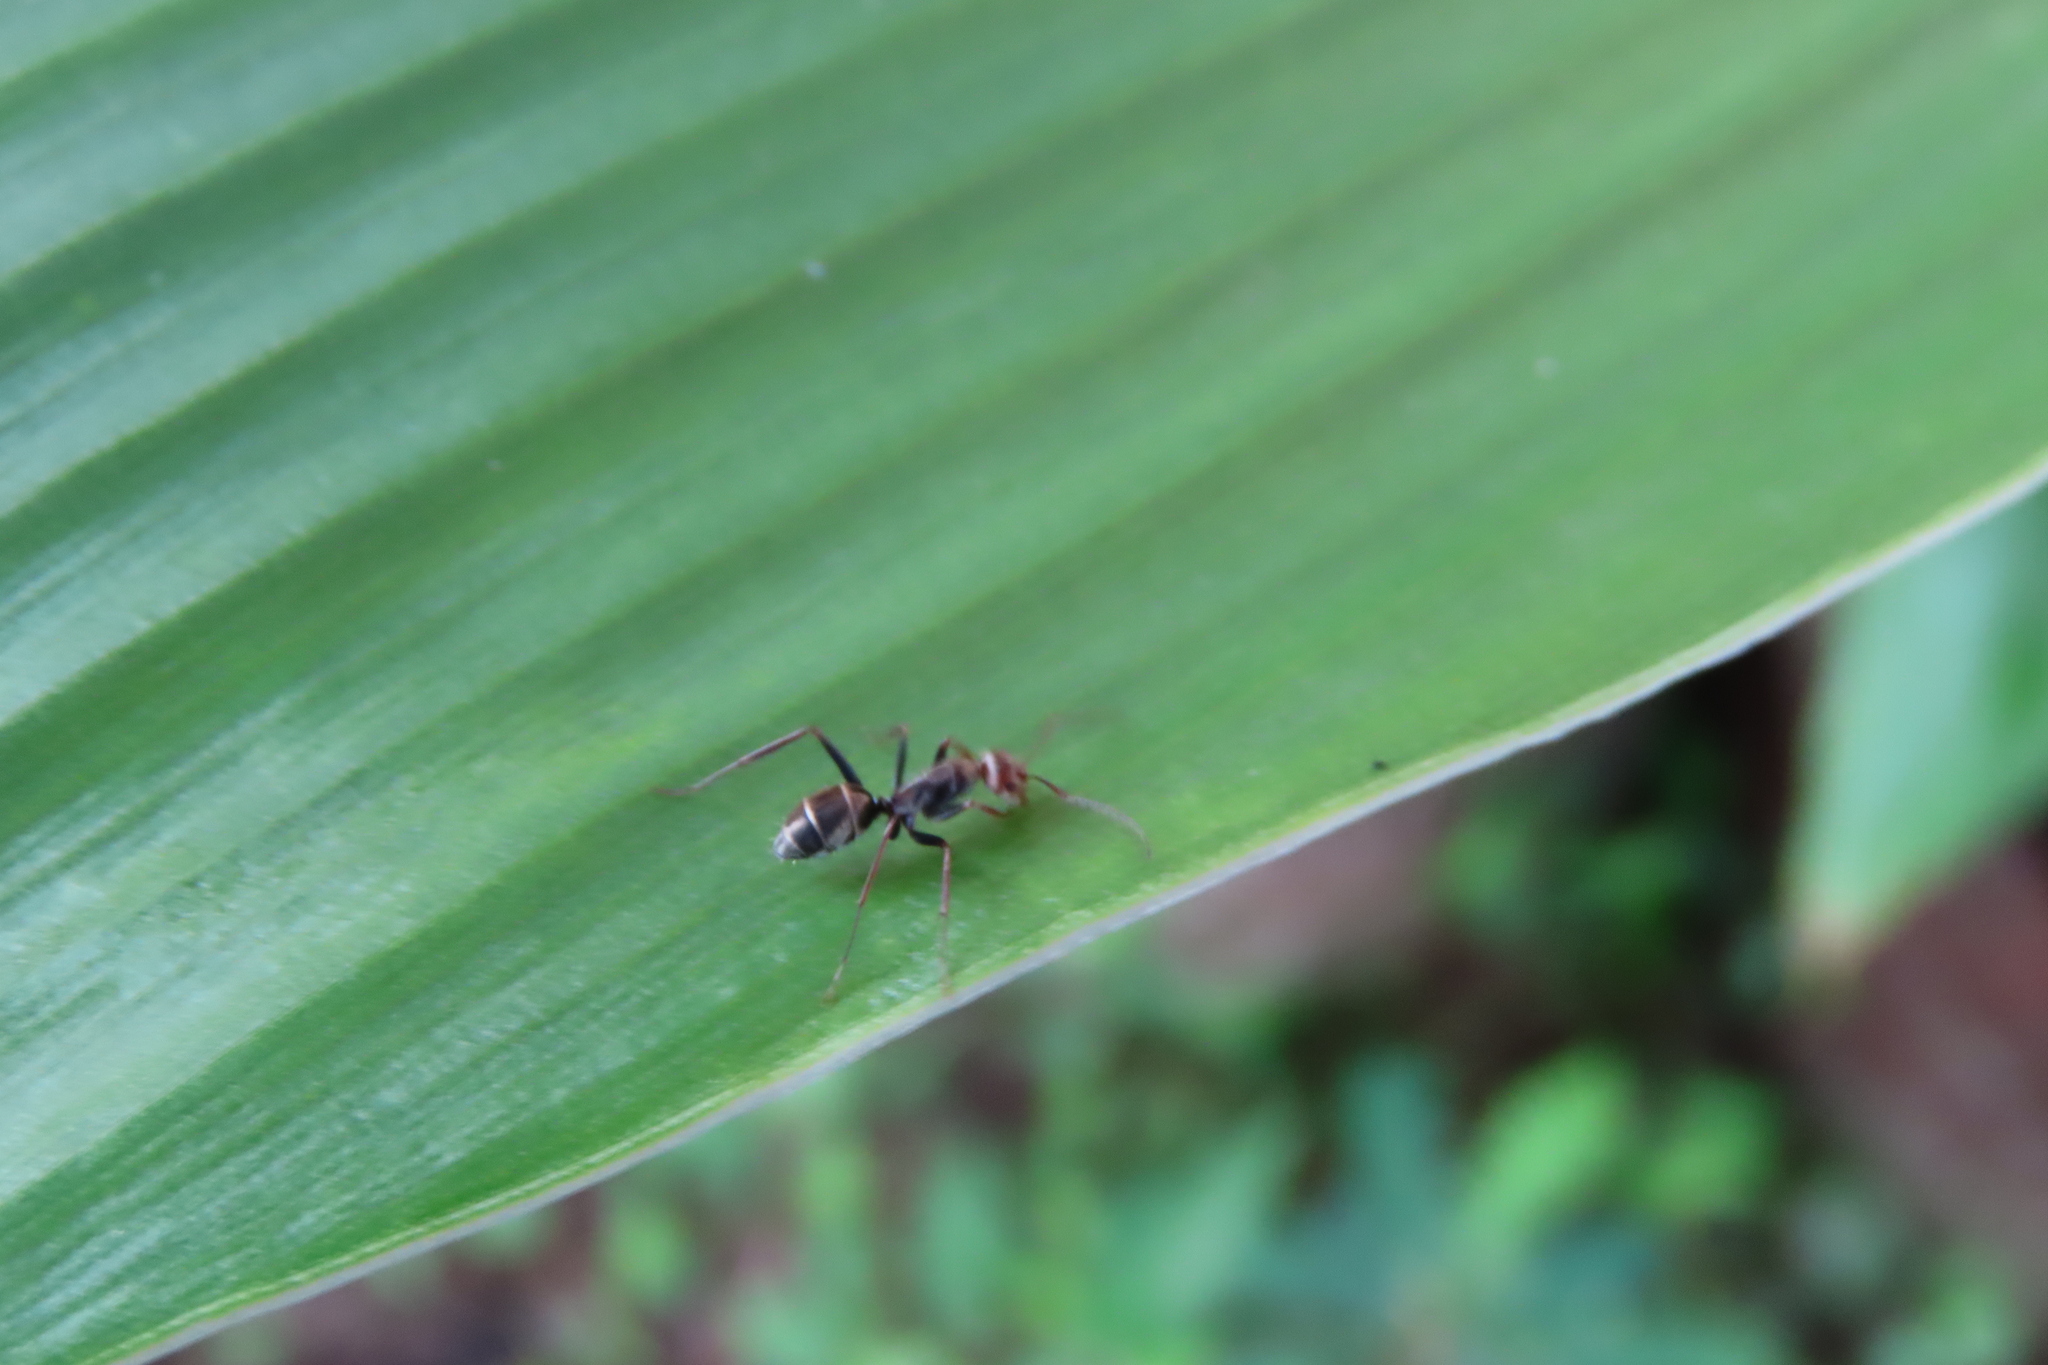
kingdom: Animalia
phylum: Arthropoda
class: Insecta
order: Hymenoptera
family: Formicidae
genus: Camponotus
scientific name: Camponotus rufoglaucus
